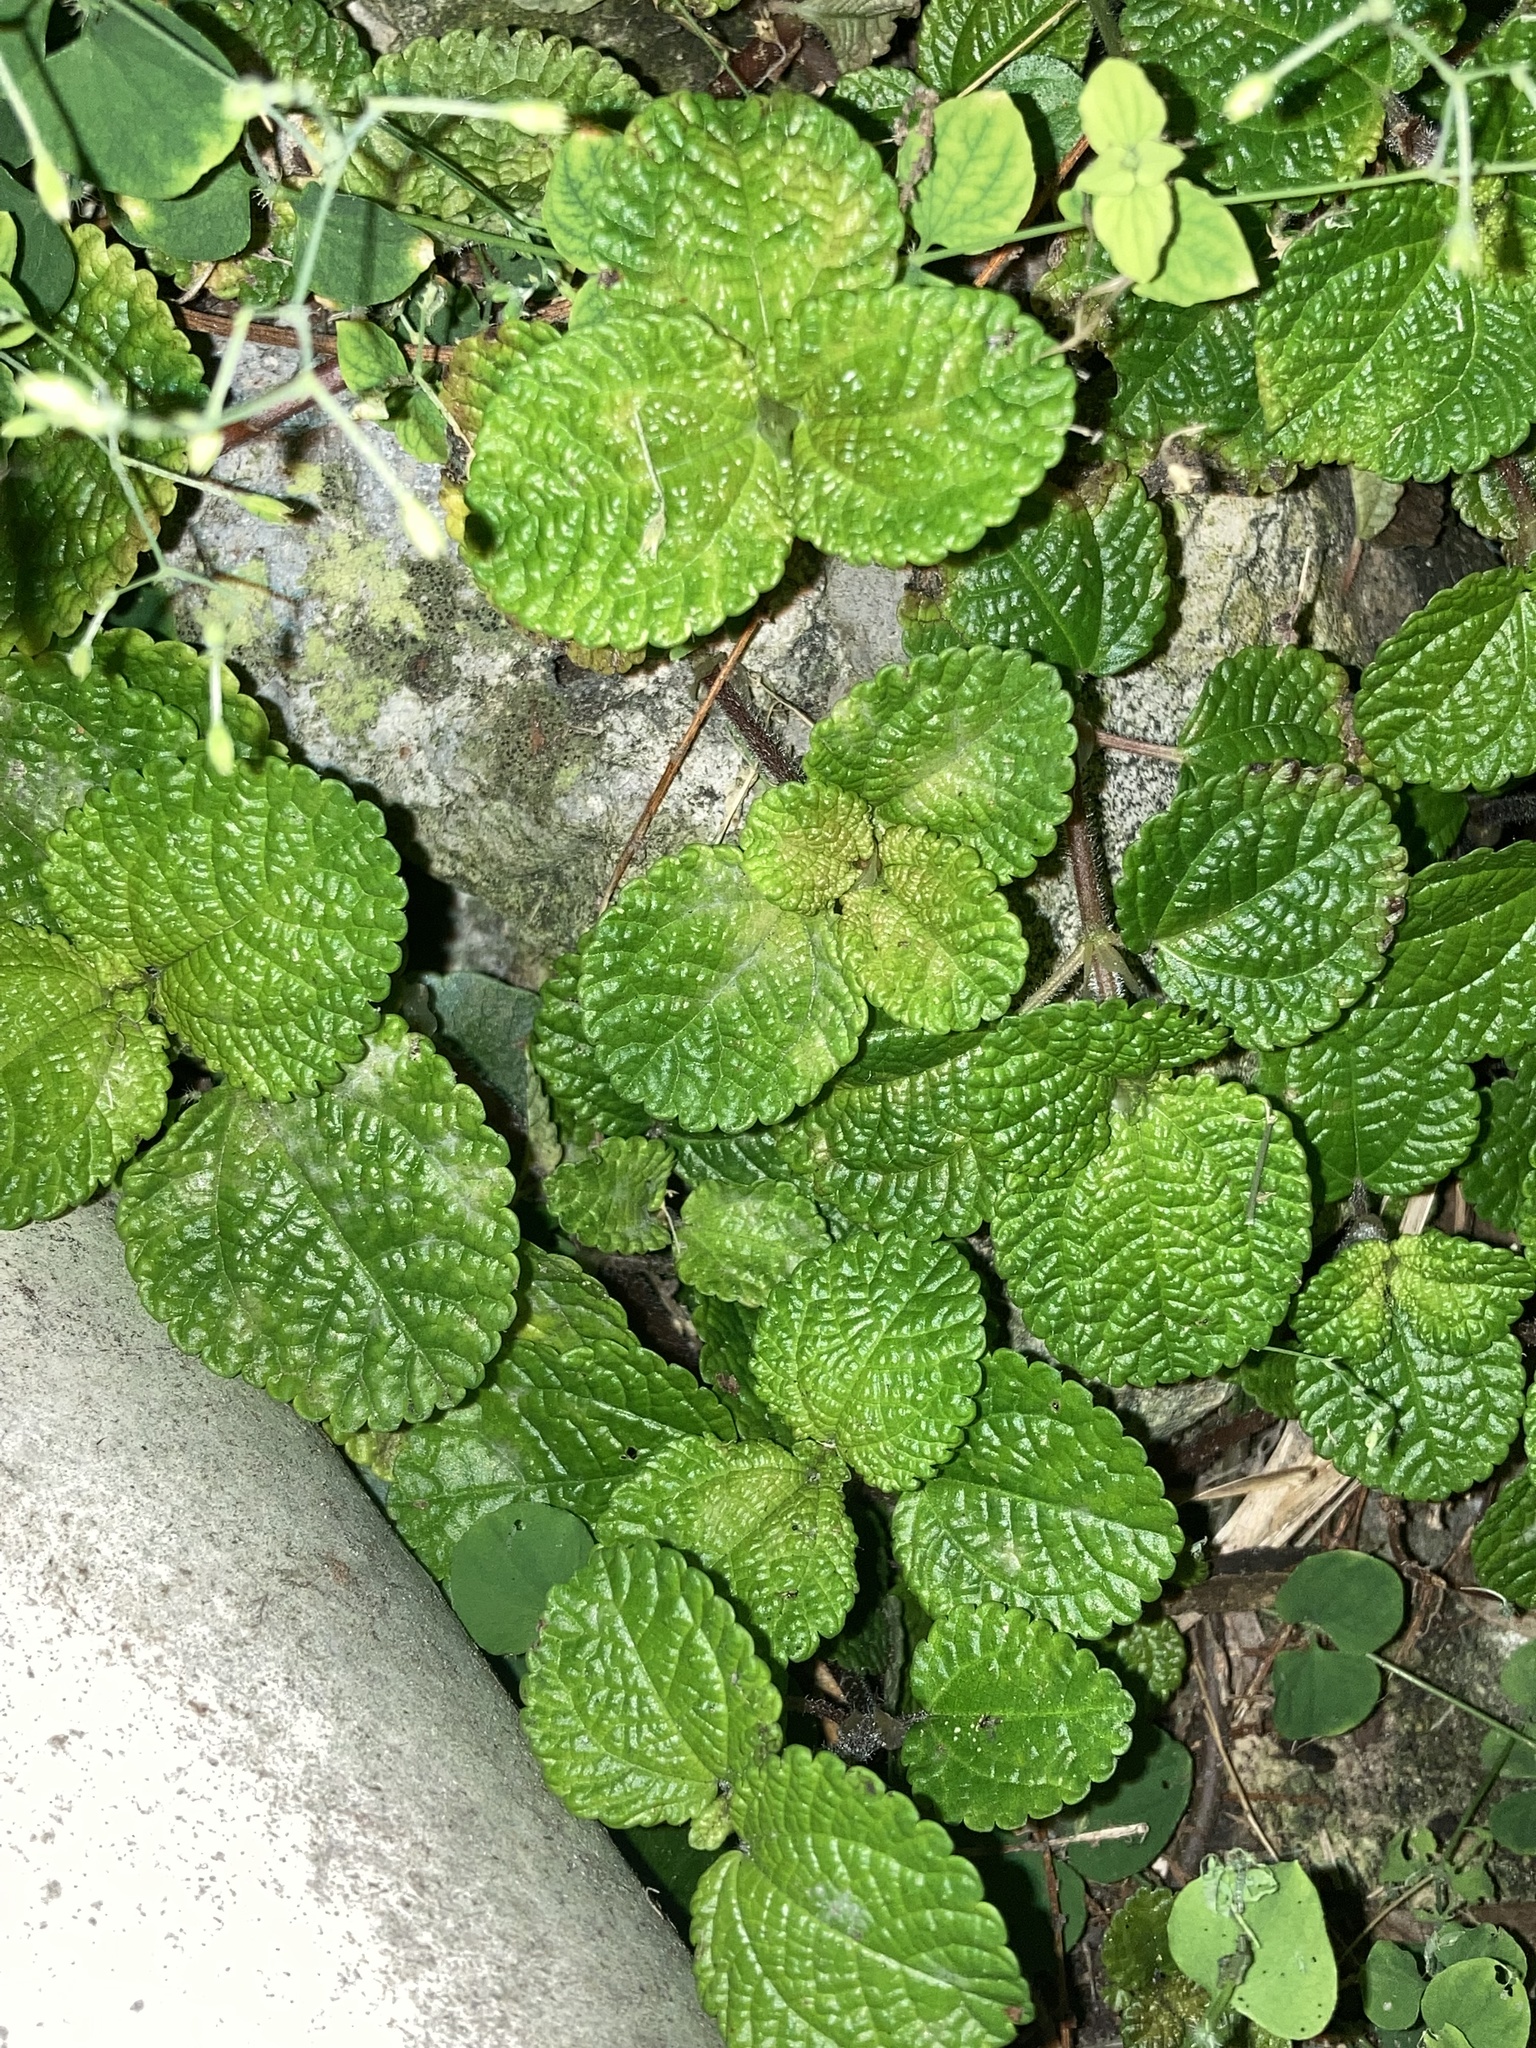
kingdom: Plantae
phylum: Tracheophyta
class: Magnoliopsida
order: Rosales
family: Urticaceae
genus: Pilea
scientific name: Pilea nummulariifolia
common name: Creeping-charlie
